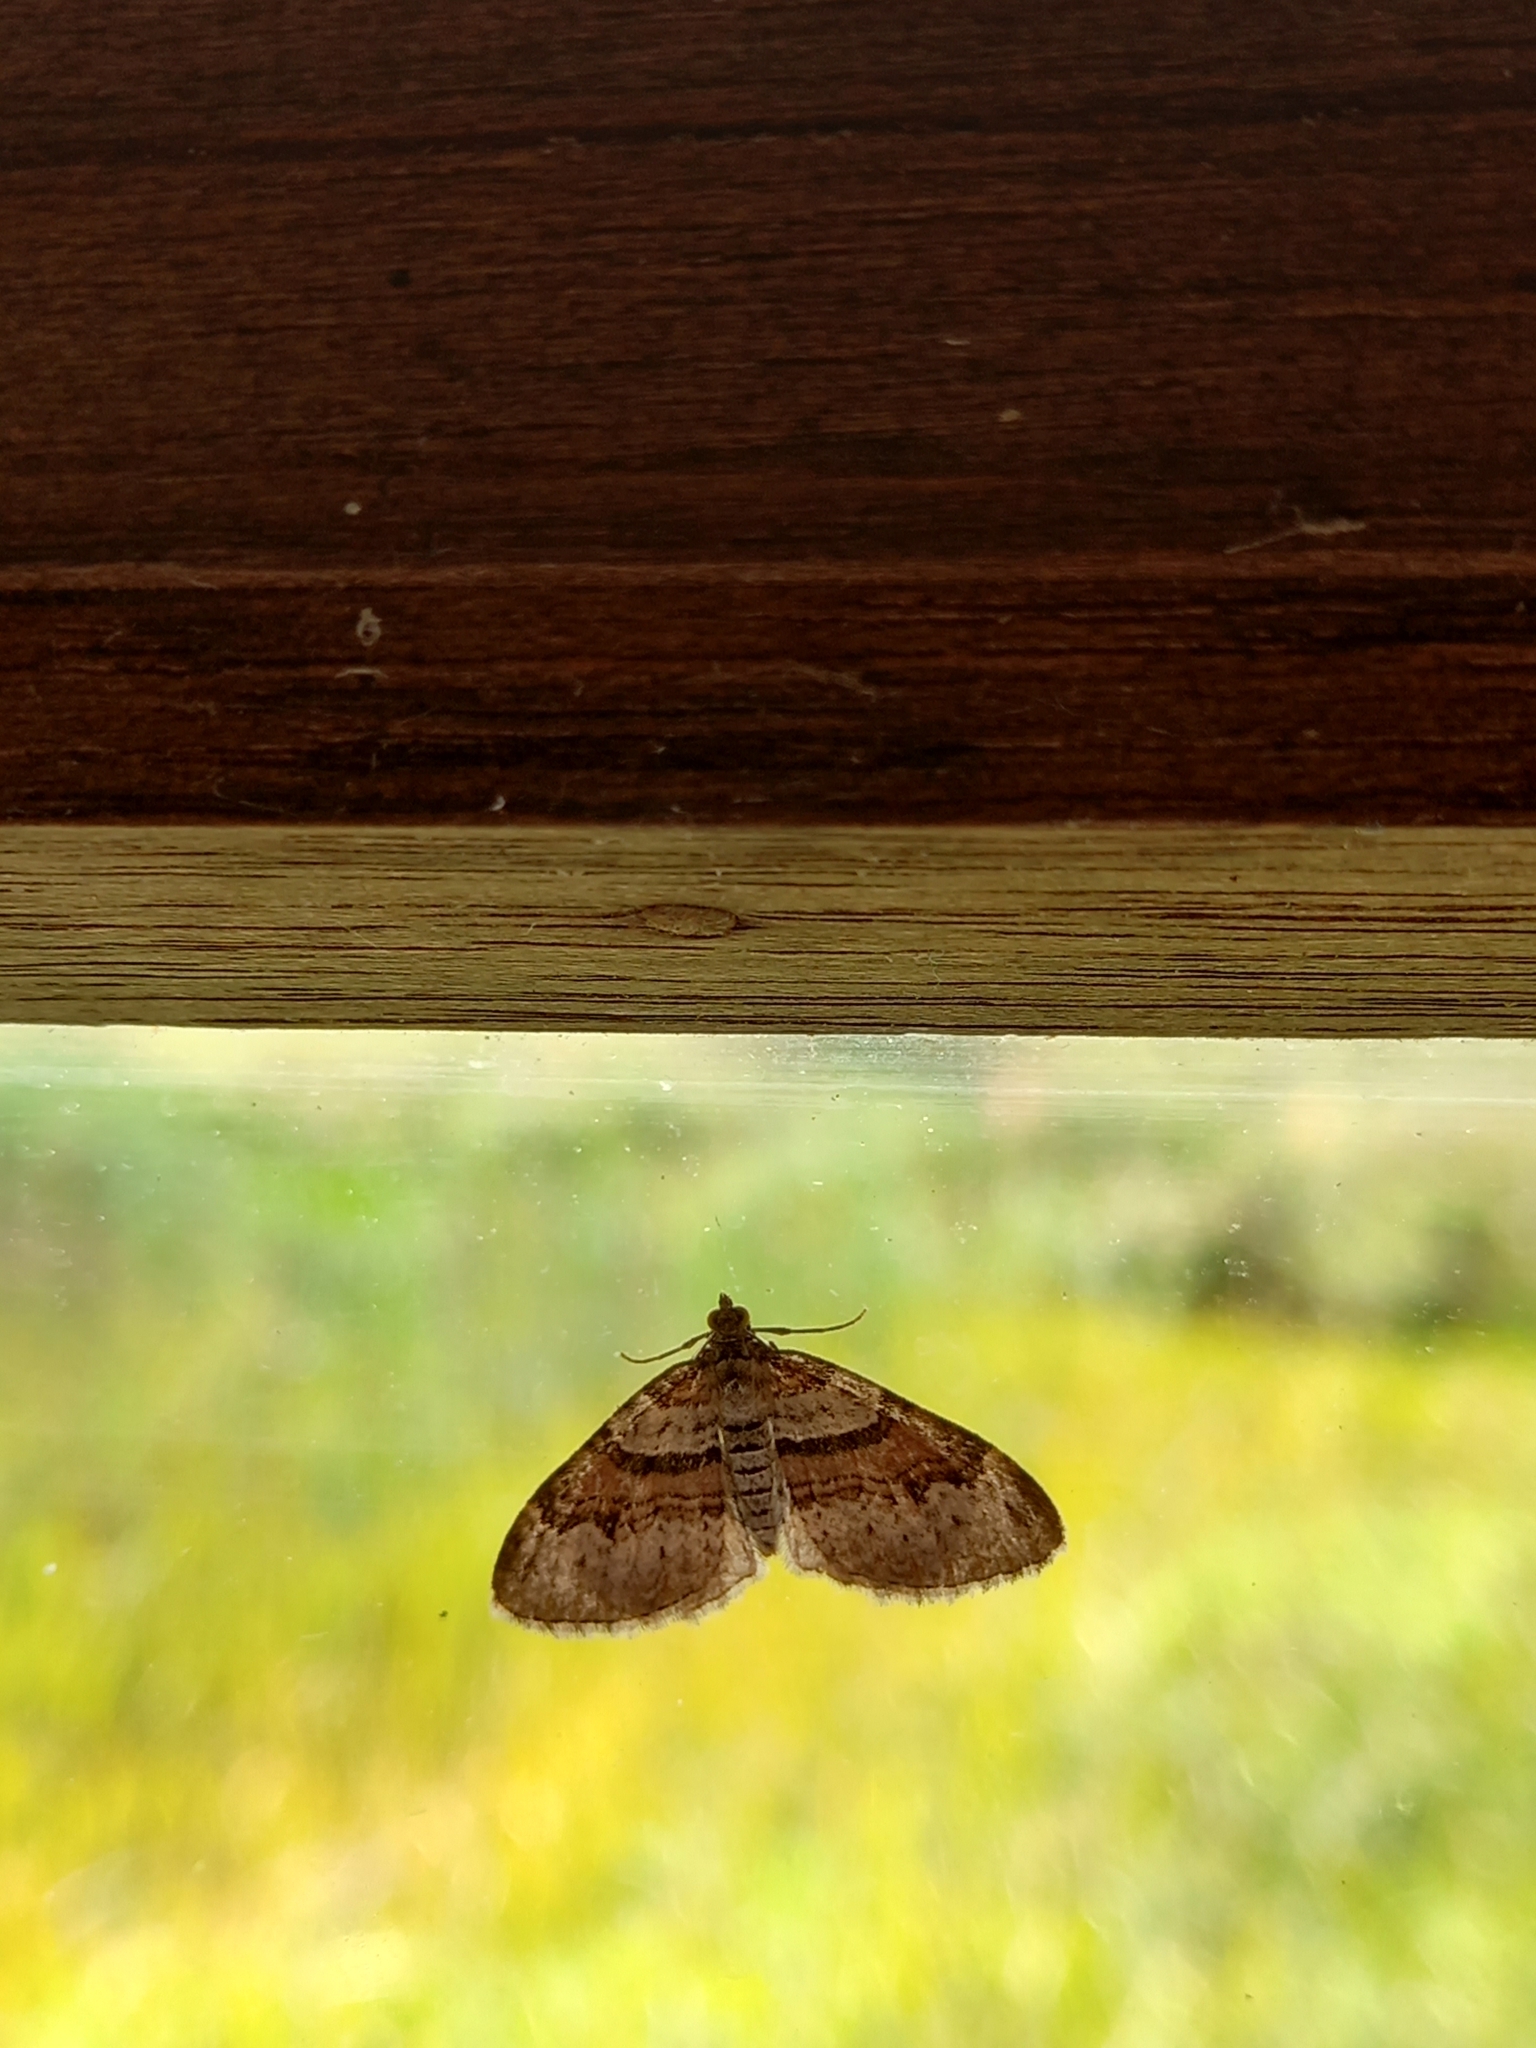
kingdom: Animalia
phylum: Arthropoda
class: Insecta
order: Lepidoptera
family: Geometridae
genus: Xanthorhoe
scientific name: Xanthorhoe designata
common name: Flame carpet
